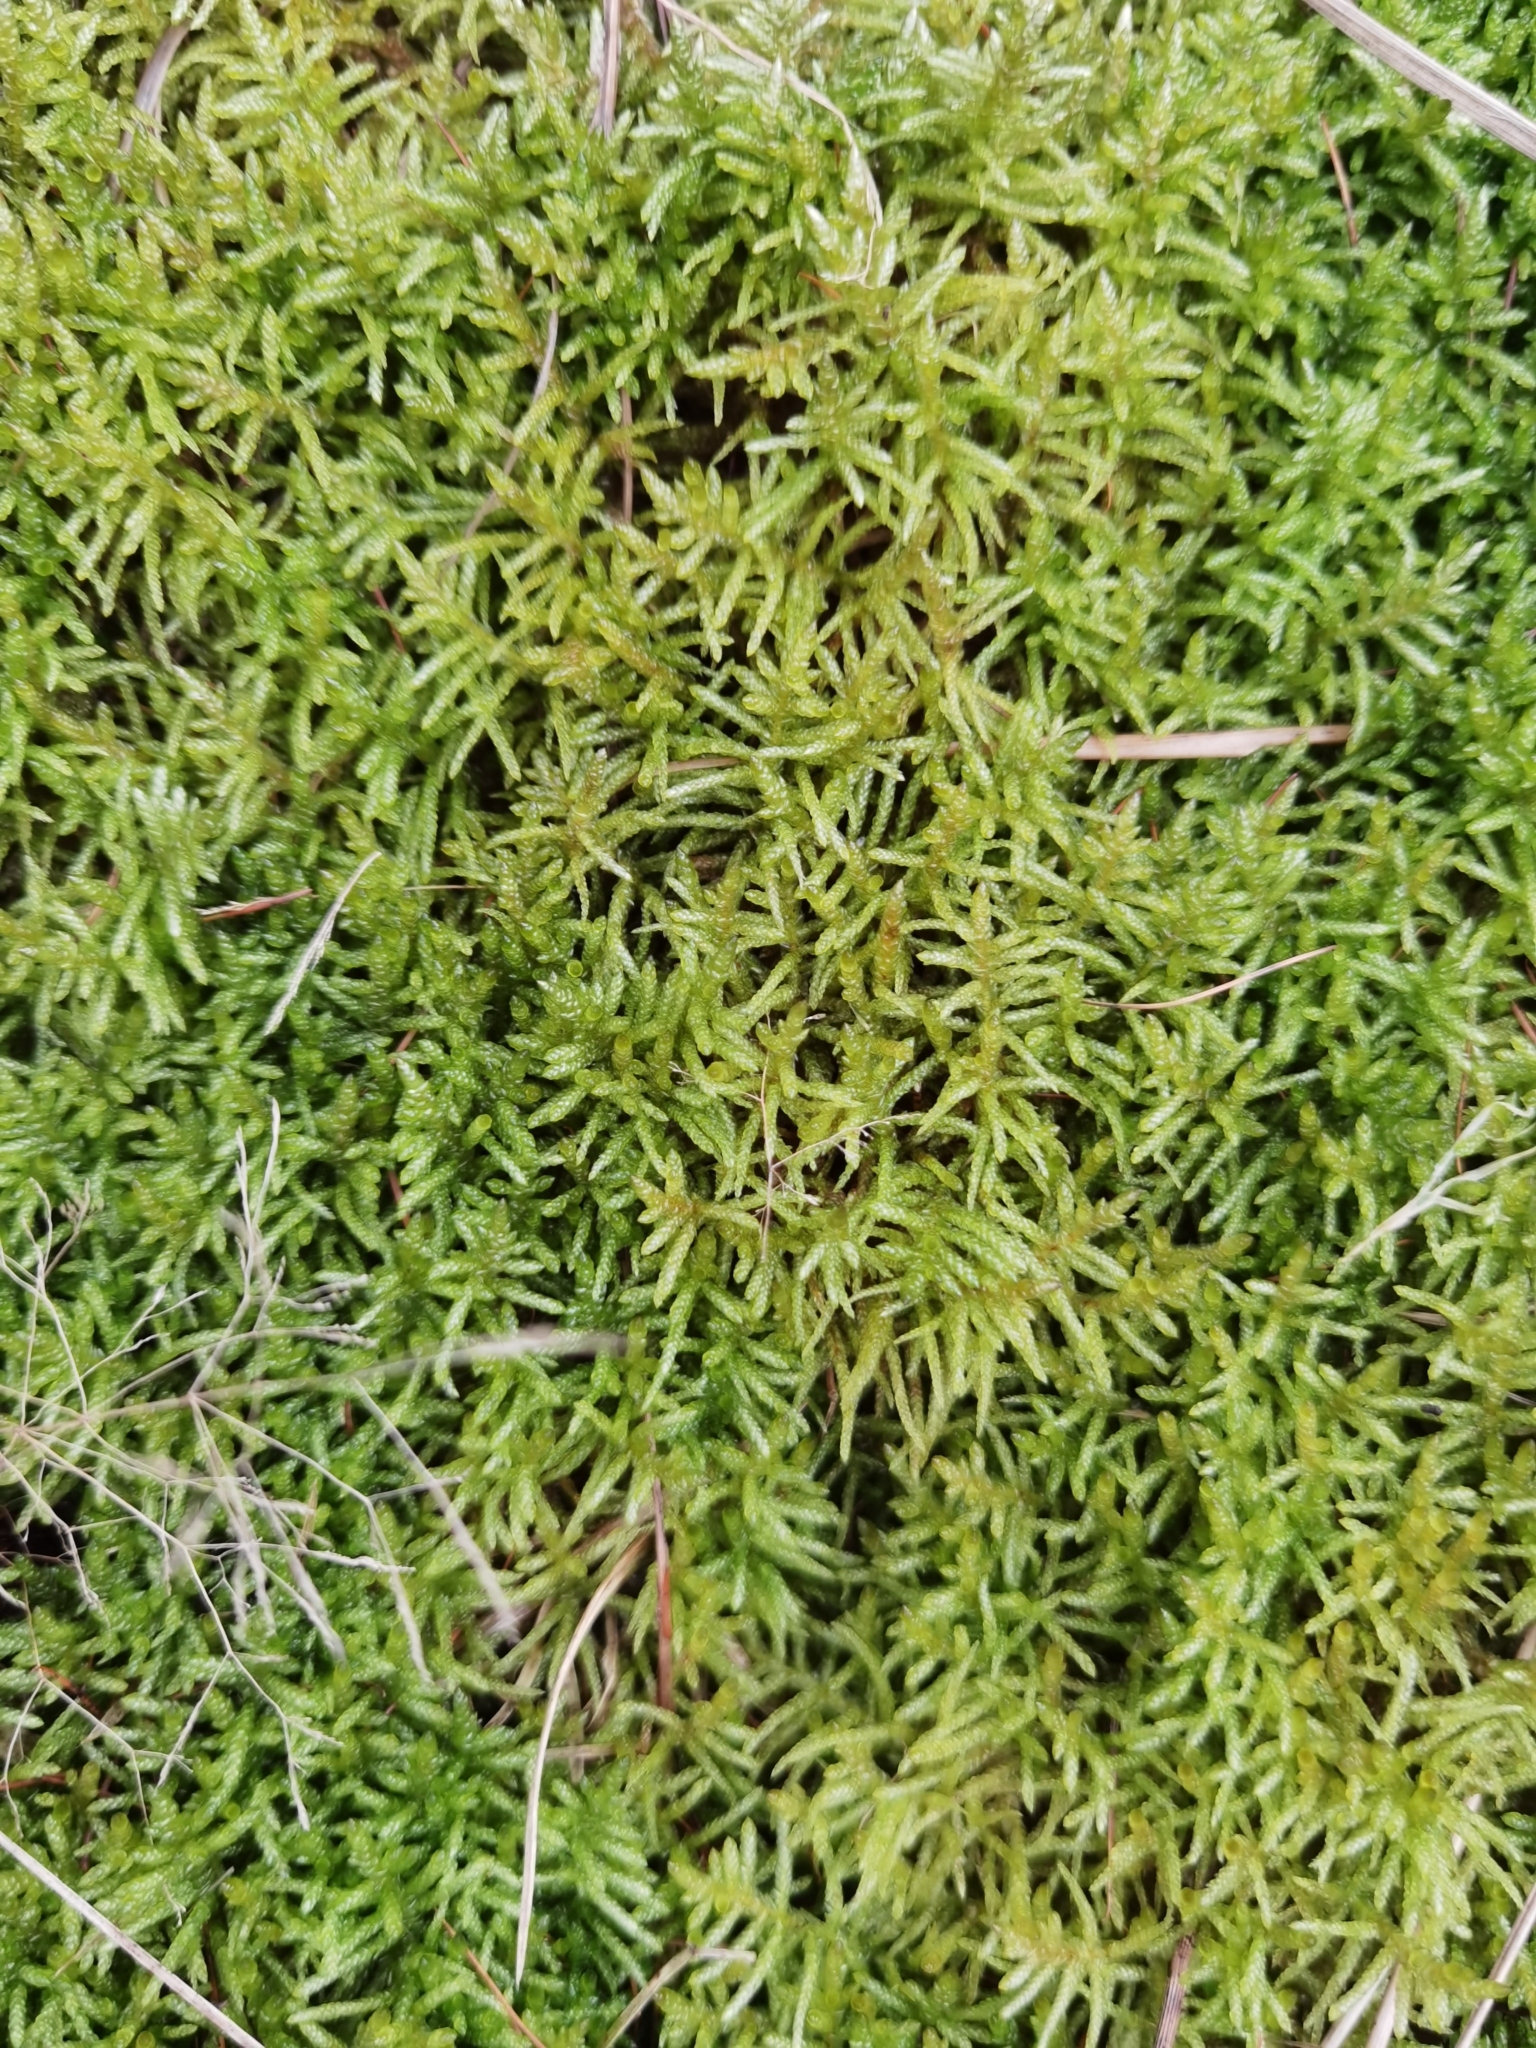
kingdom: Plantae
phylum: Bryophyta
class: Bryopsida
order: Hypnales
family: Brachytheciaceae
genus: Pseudoscleropodium
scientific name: Pseudoscleropodium purum
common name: Neat feather-moss
